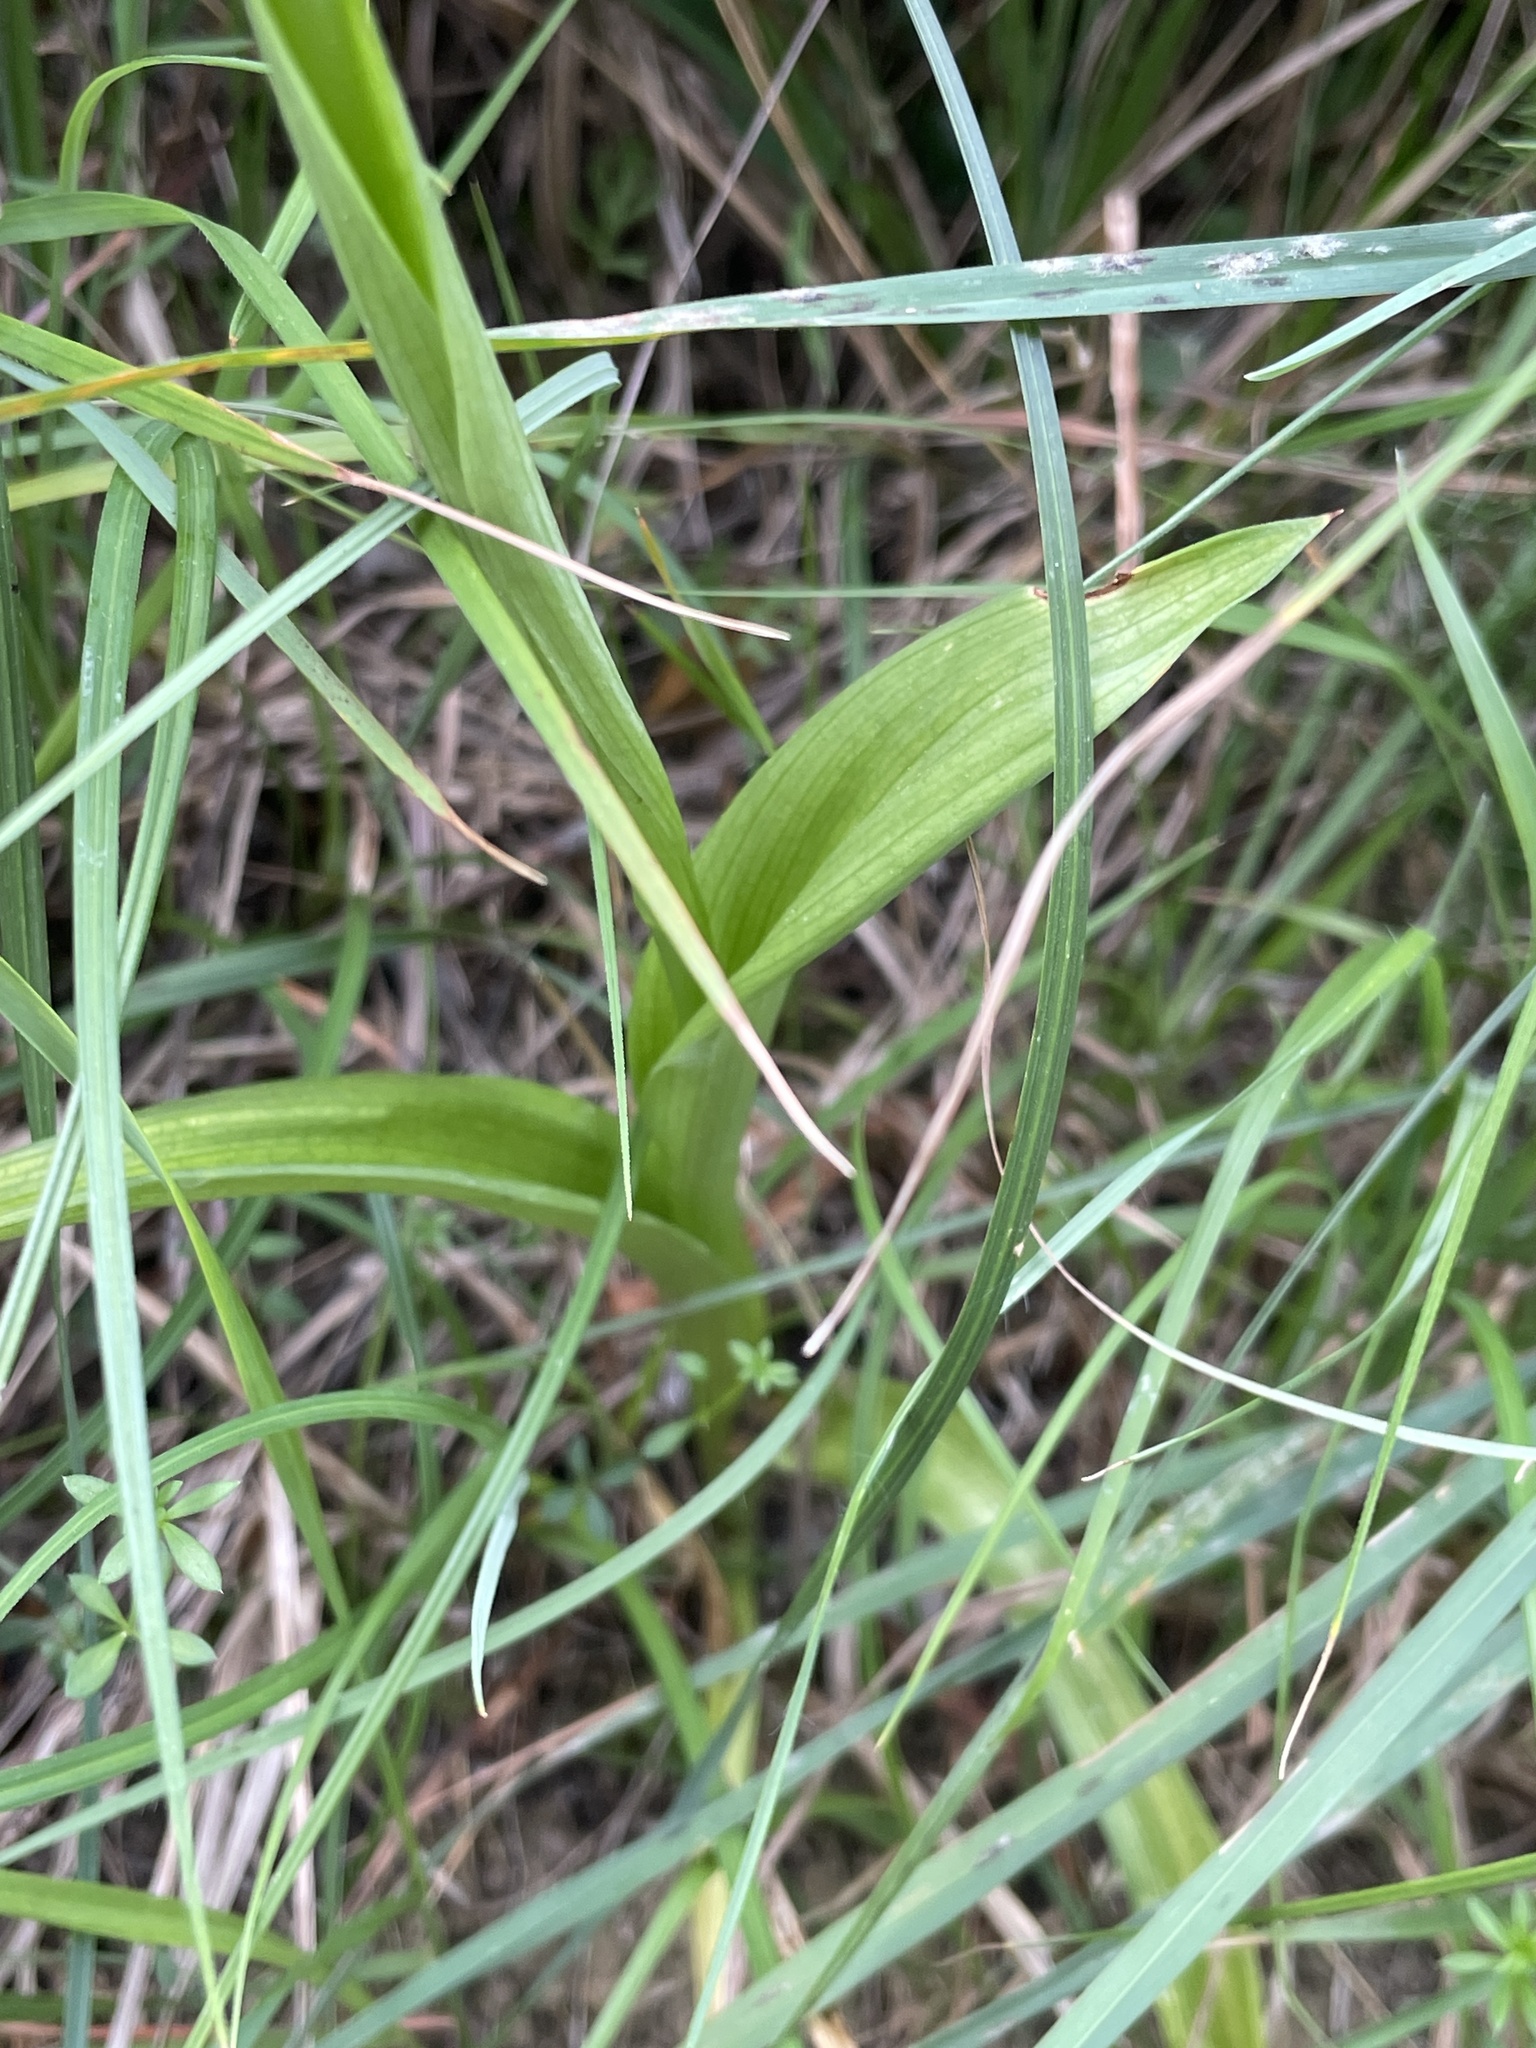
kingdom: Plantae
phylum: Tracheophyta
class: Liliopsida
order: Asparagales
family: Orchidaceae
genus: Anacamptis
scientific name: Anacamptis pyramidalis
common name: Pyramidal orchid
